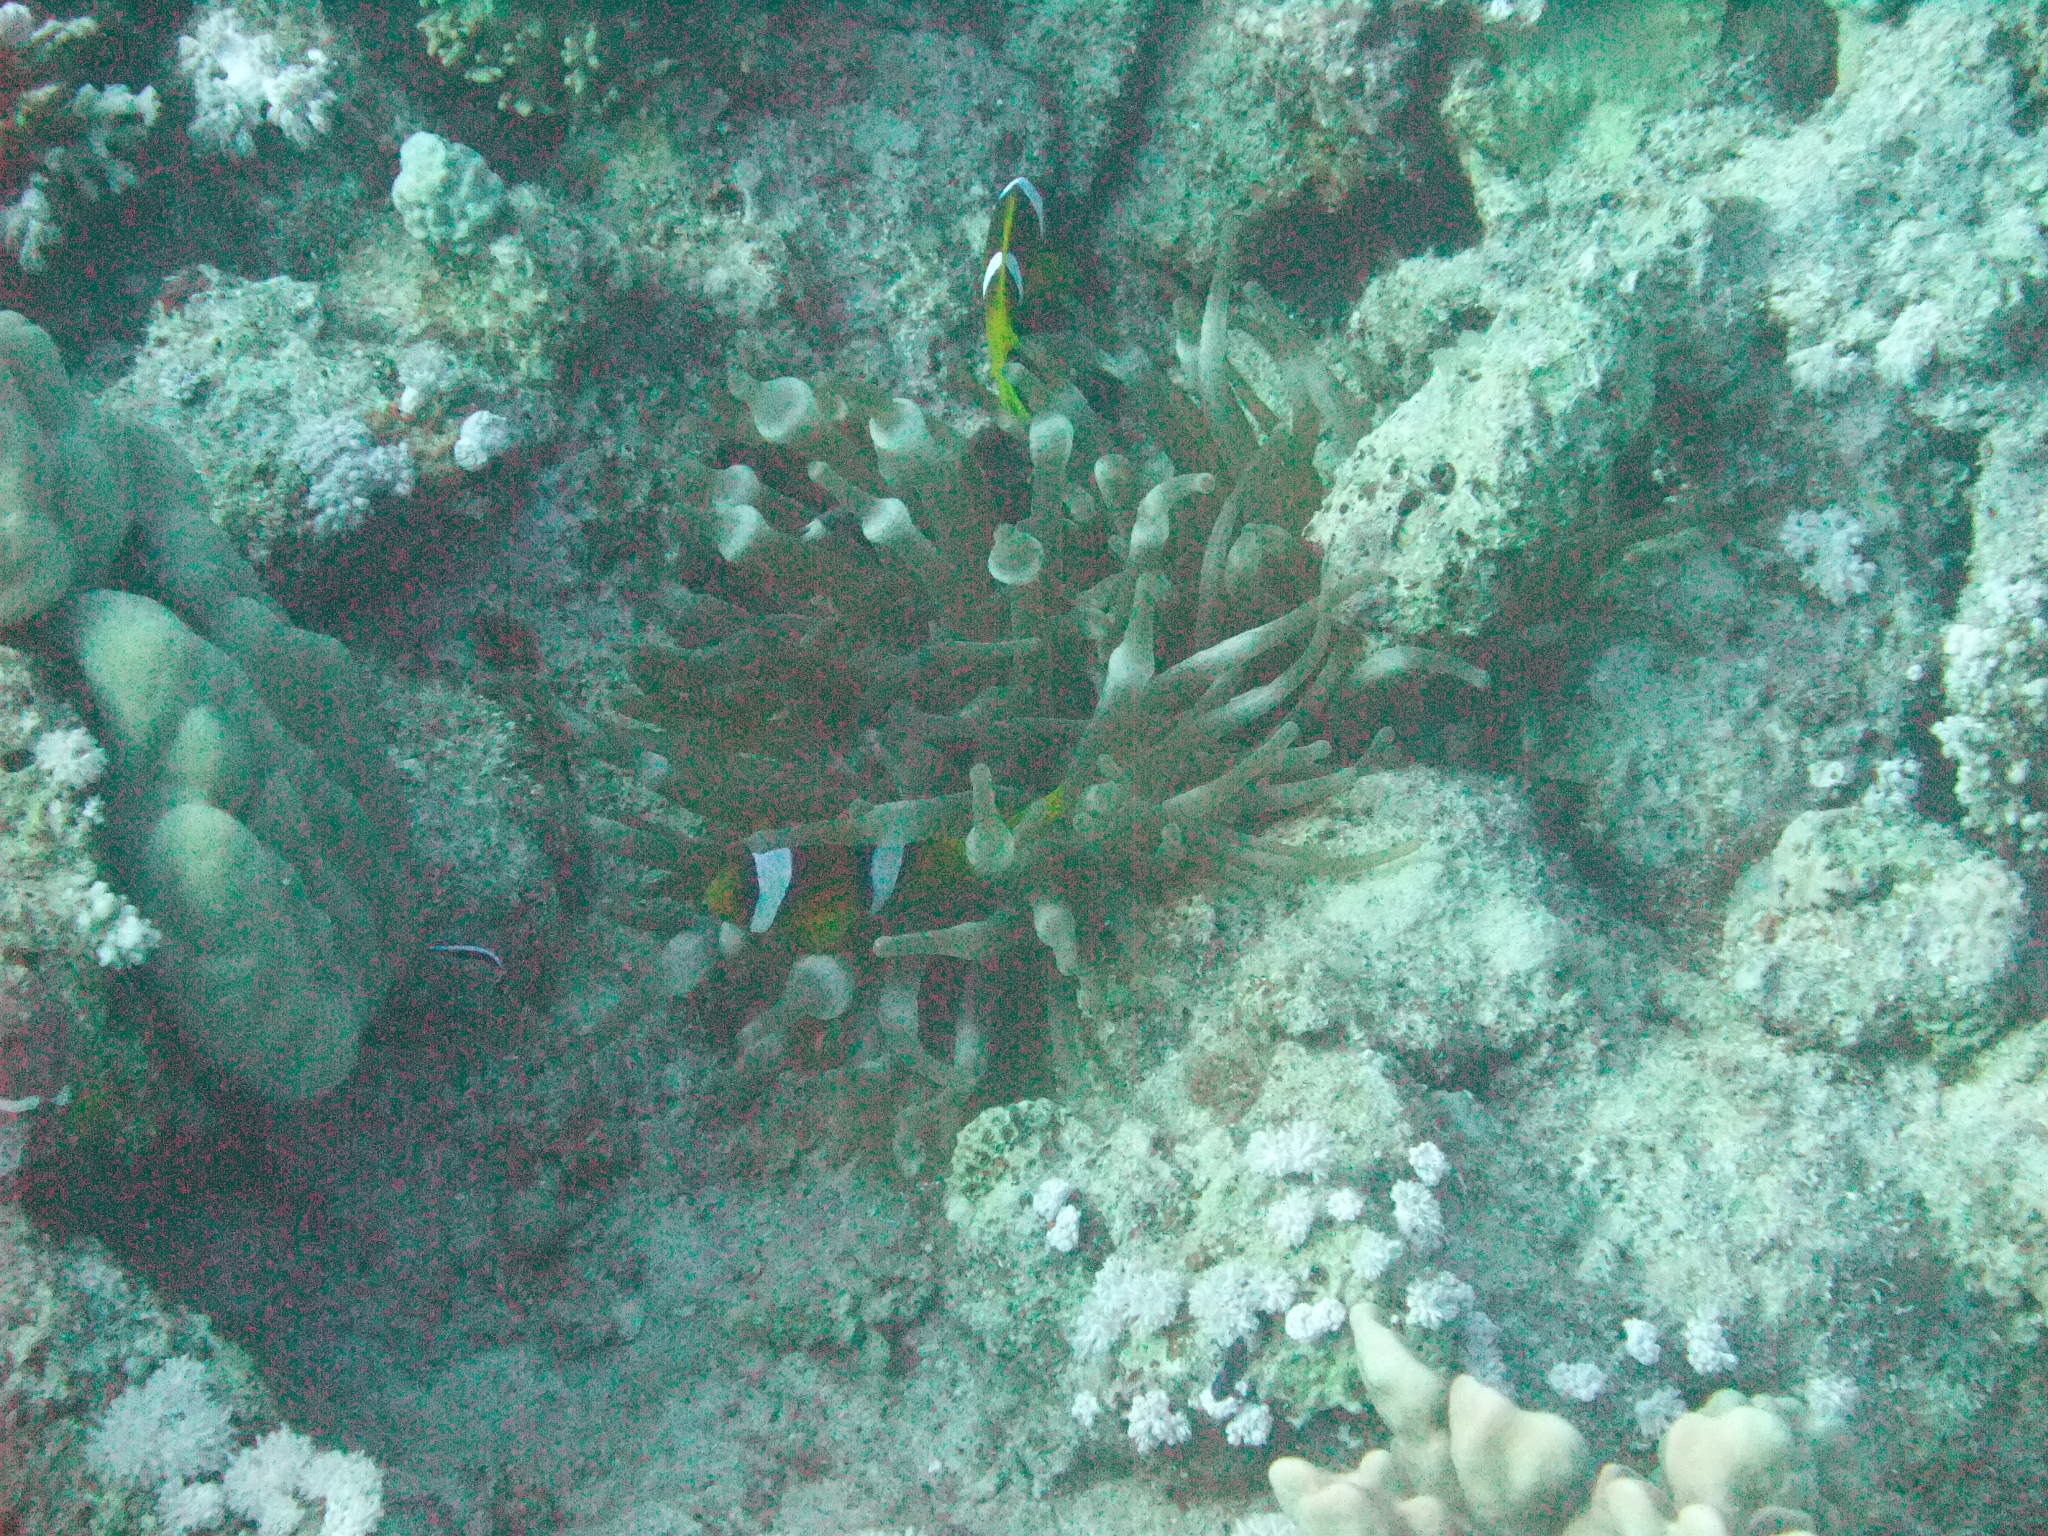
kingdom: Animalia
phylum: Cnidaria
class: Anthozoa
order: Actiniaria
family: Actiniidae
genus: Entacmaea
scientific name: Entacmaea quadricolor
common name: Bulb tentacle sea anemone
